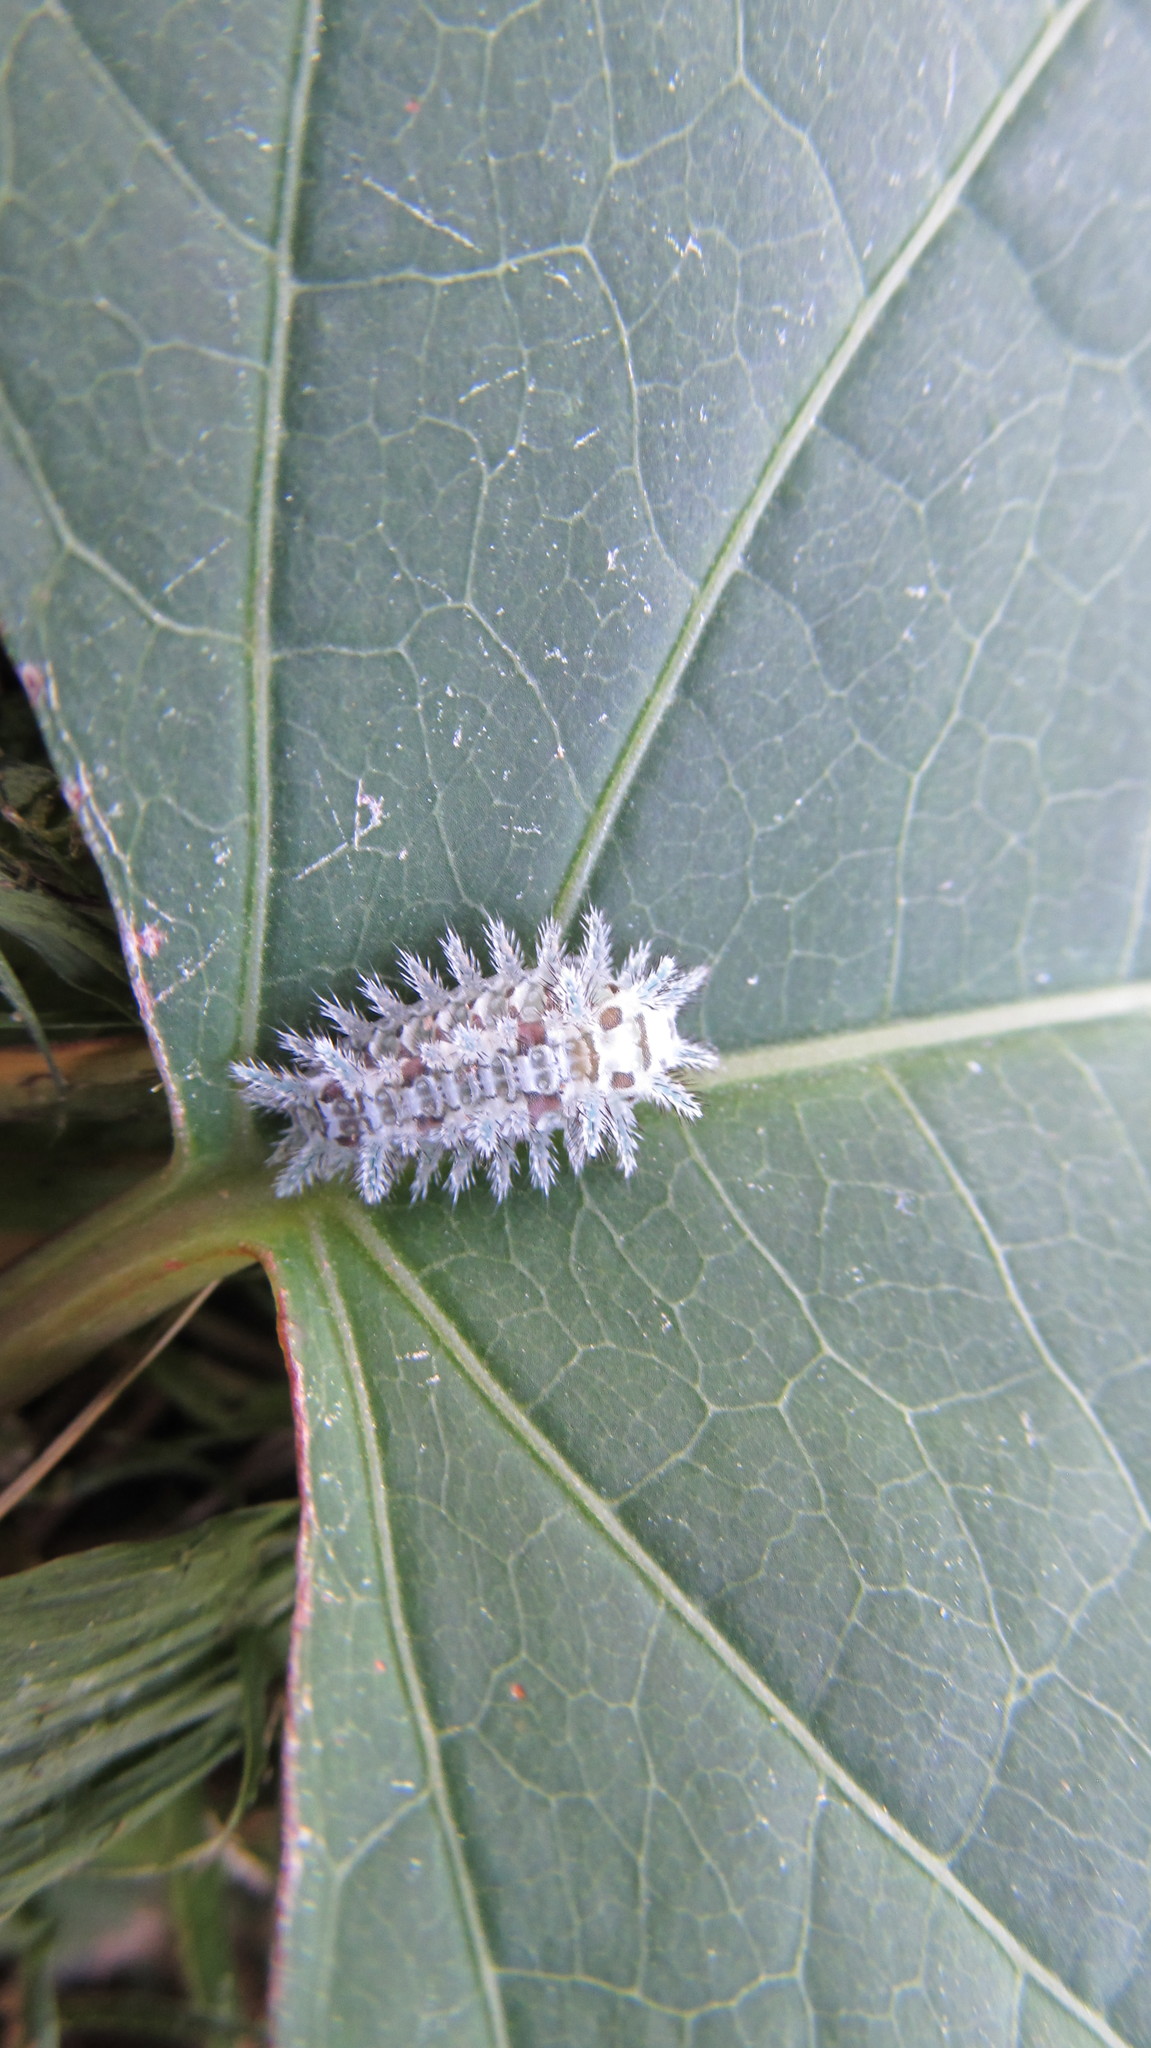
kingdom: Animalia
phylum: Arthropoda
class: Insecta
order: Lepidoptera
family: Limacodidae
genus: Euclea
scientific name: Euclea delphinii
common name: Spiny oak-slug moth
